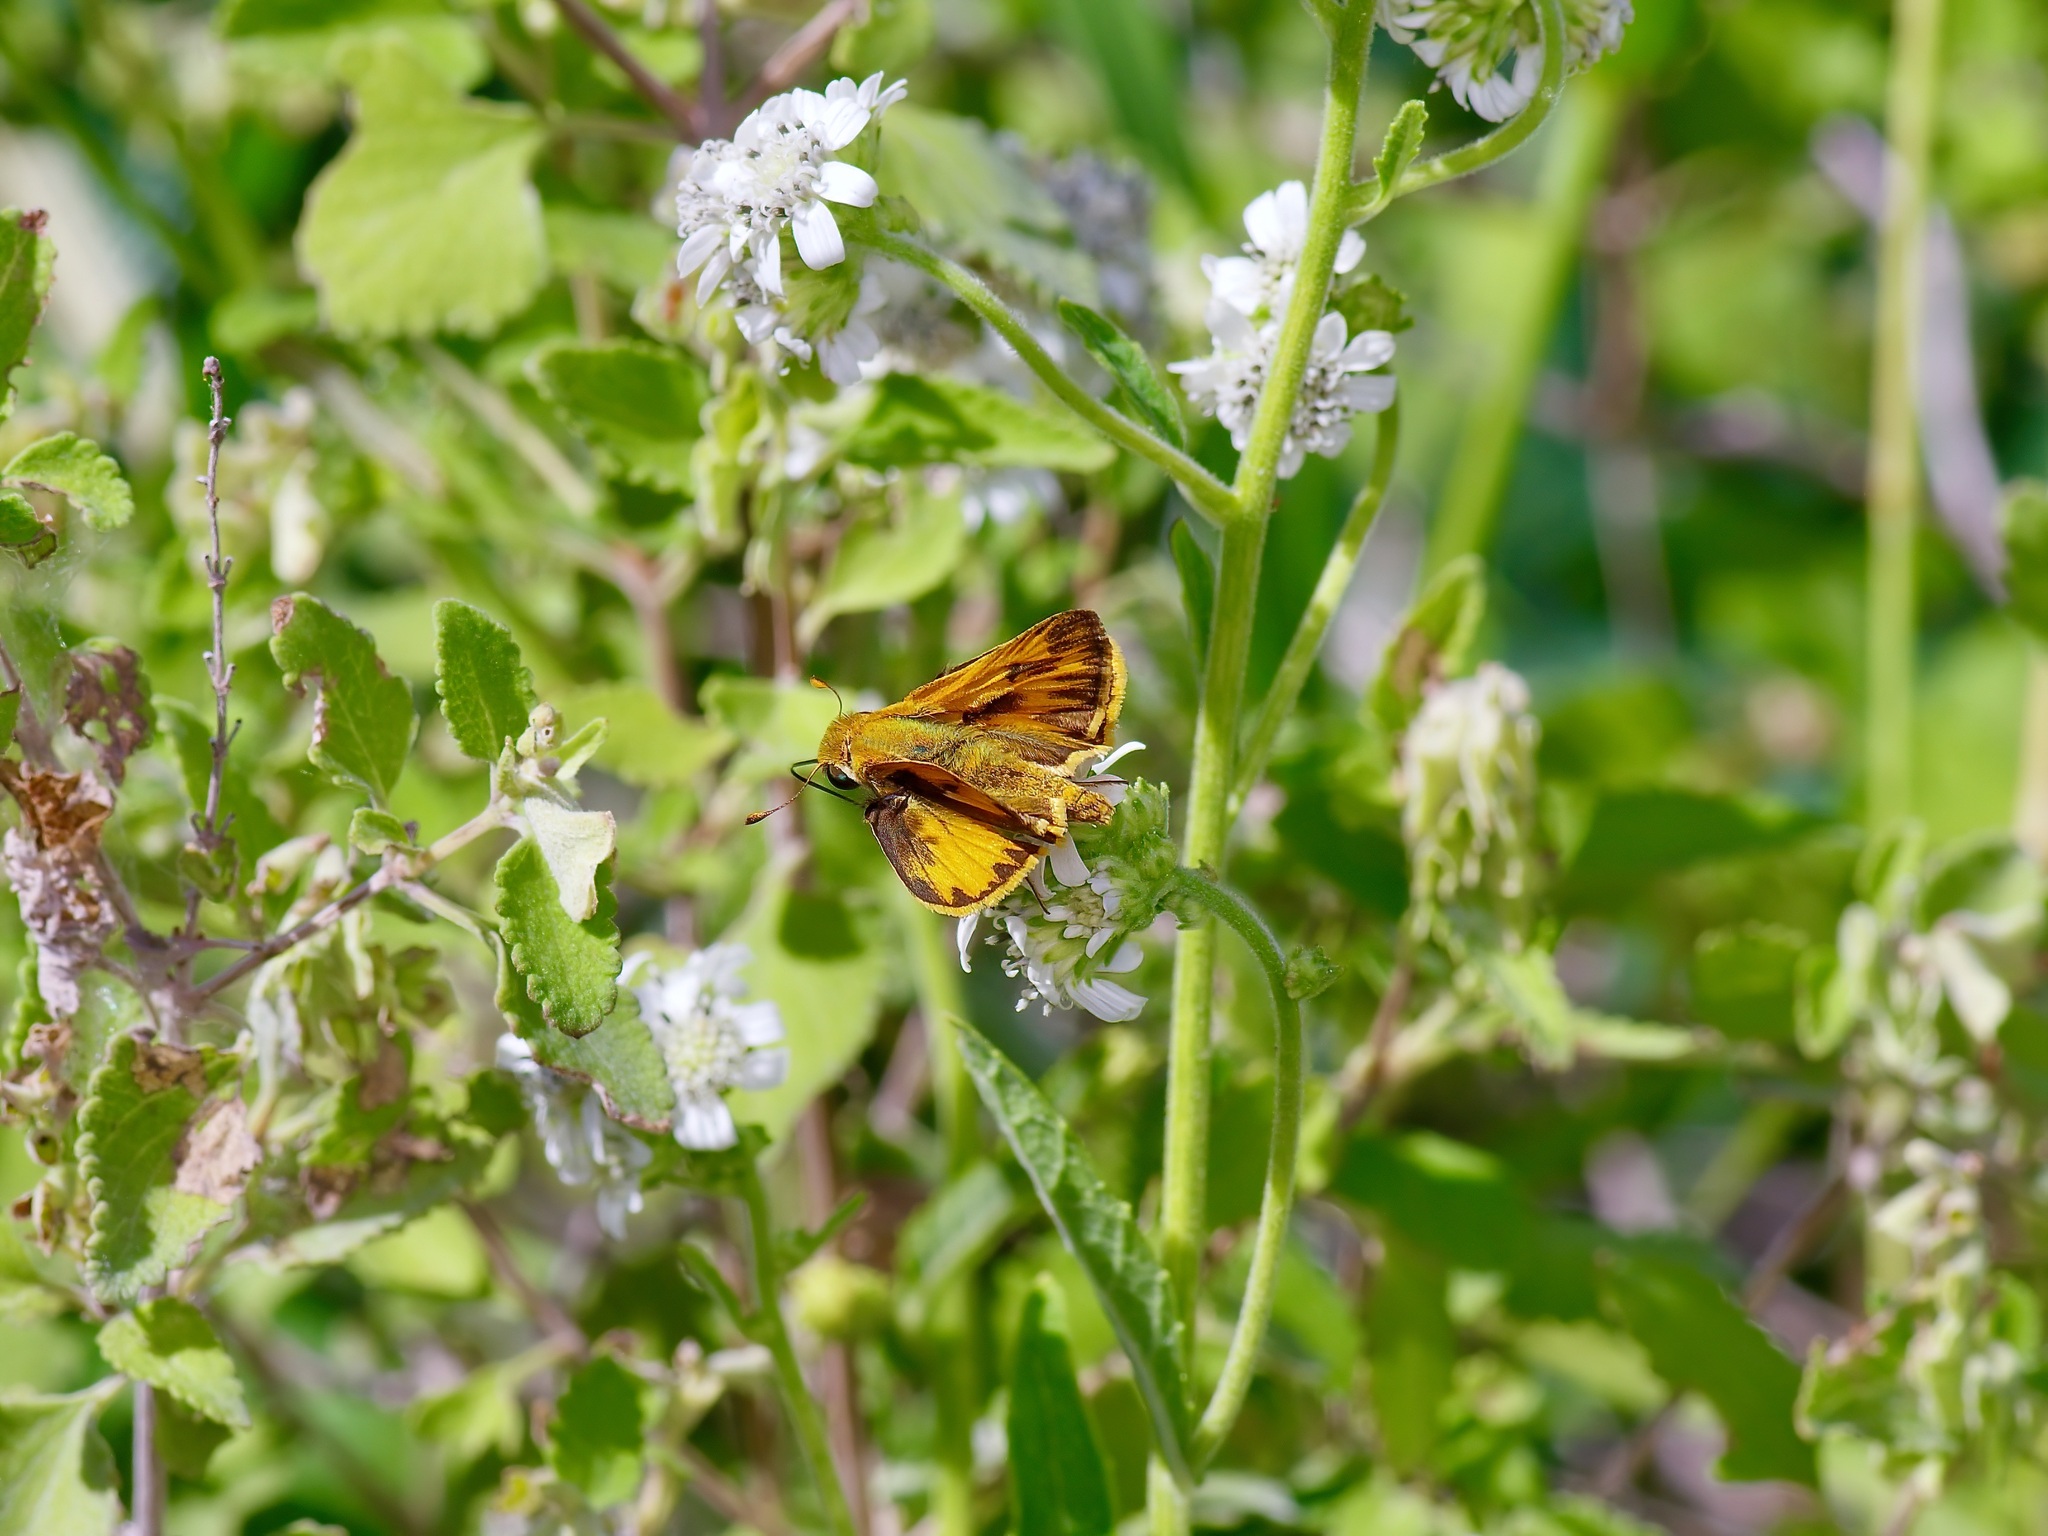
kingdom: Animalia
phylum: Arthropoda
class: Insecta
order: Lepidoptera
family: Hesperiidae
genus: Hylephila
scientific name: Hylephila phyleus
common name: Fiery skipper
